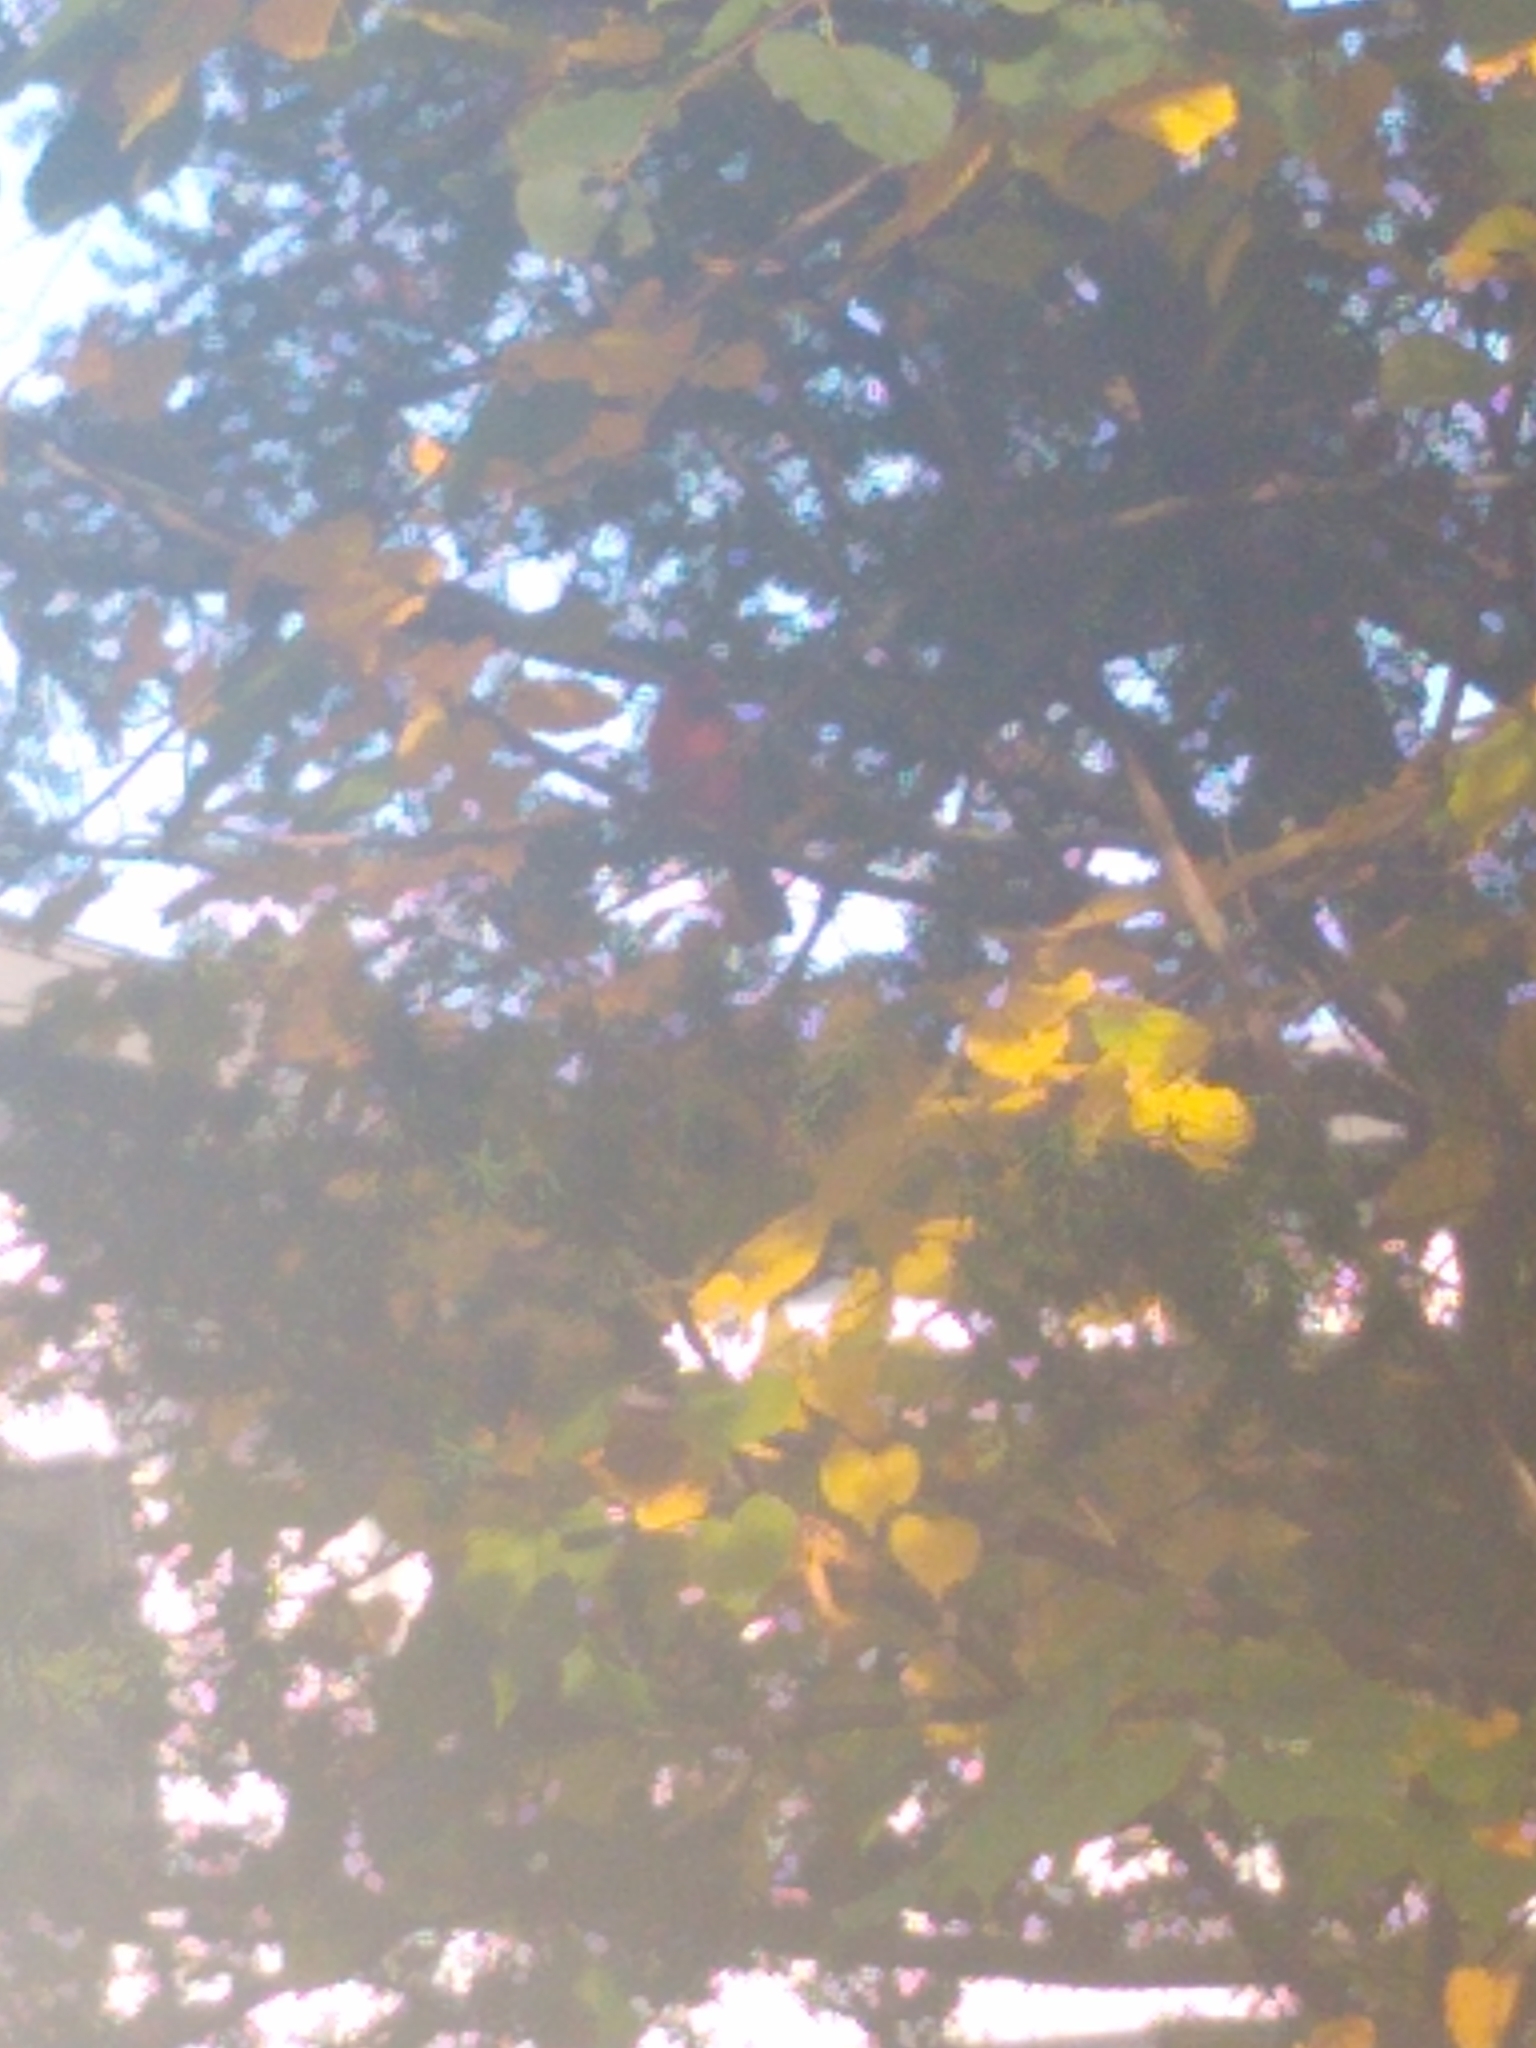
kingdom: Animalia
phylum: Chordata
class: Aves
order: Passeriformes
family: Cardinalidae
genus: Cardinalis
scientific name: Cardinalis cardinalis
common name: Northern cardinal
